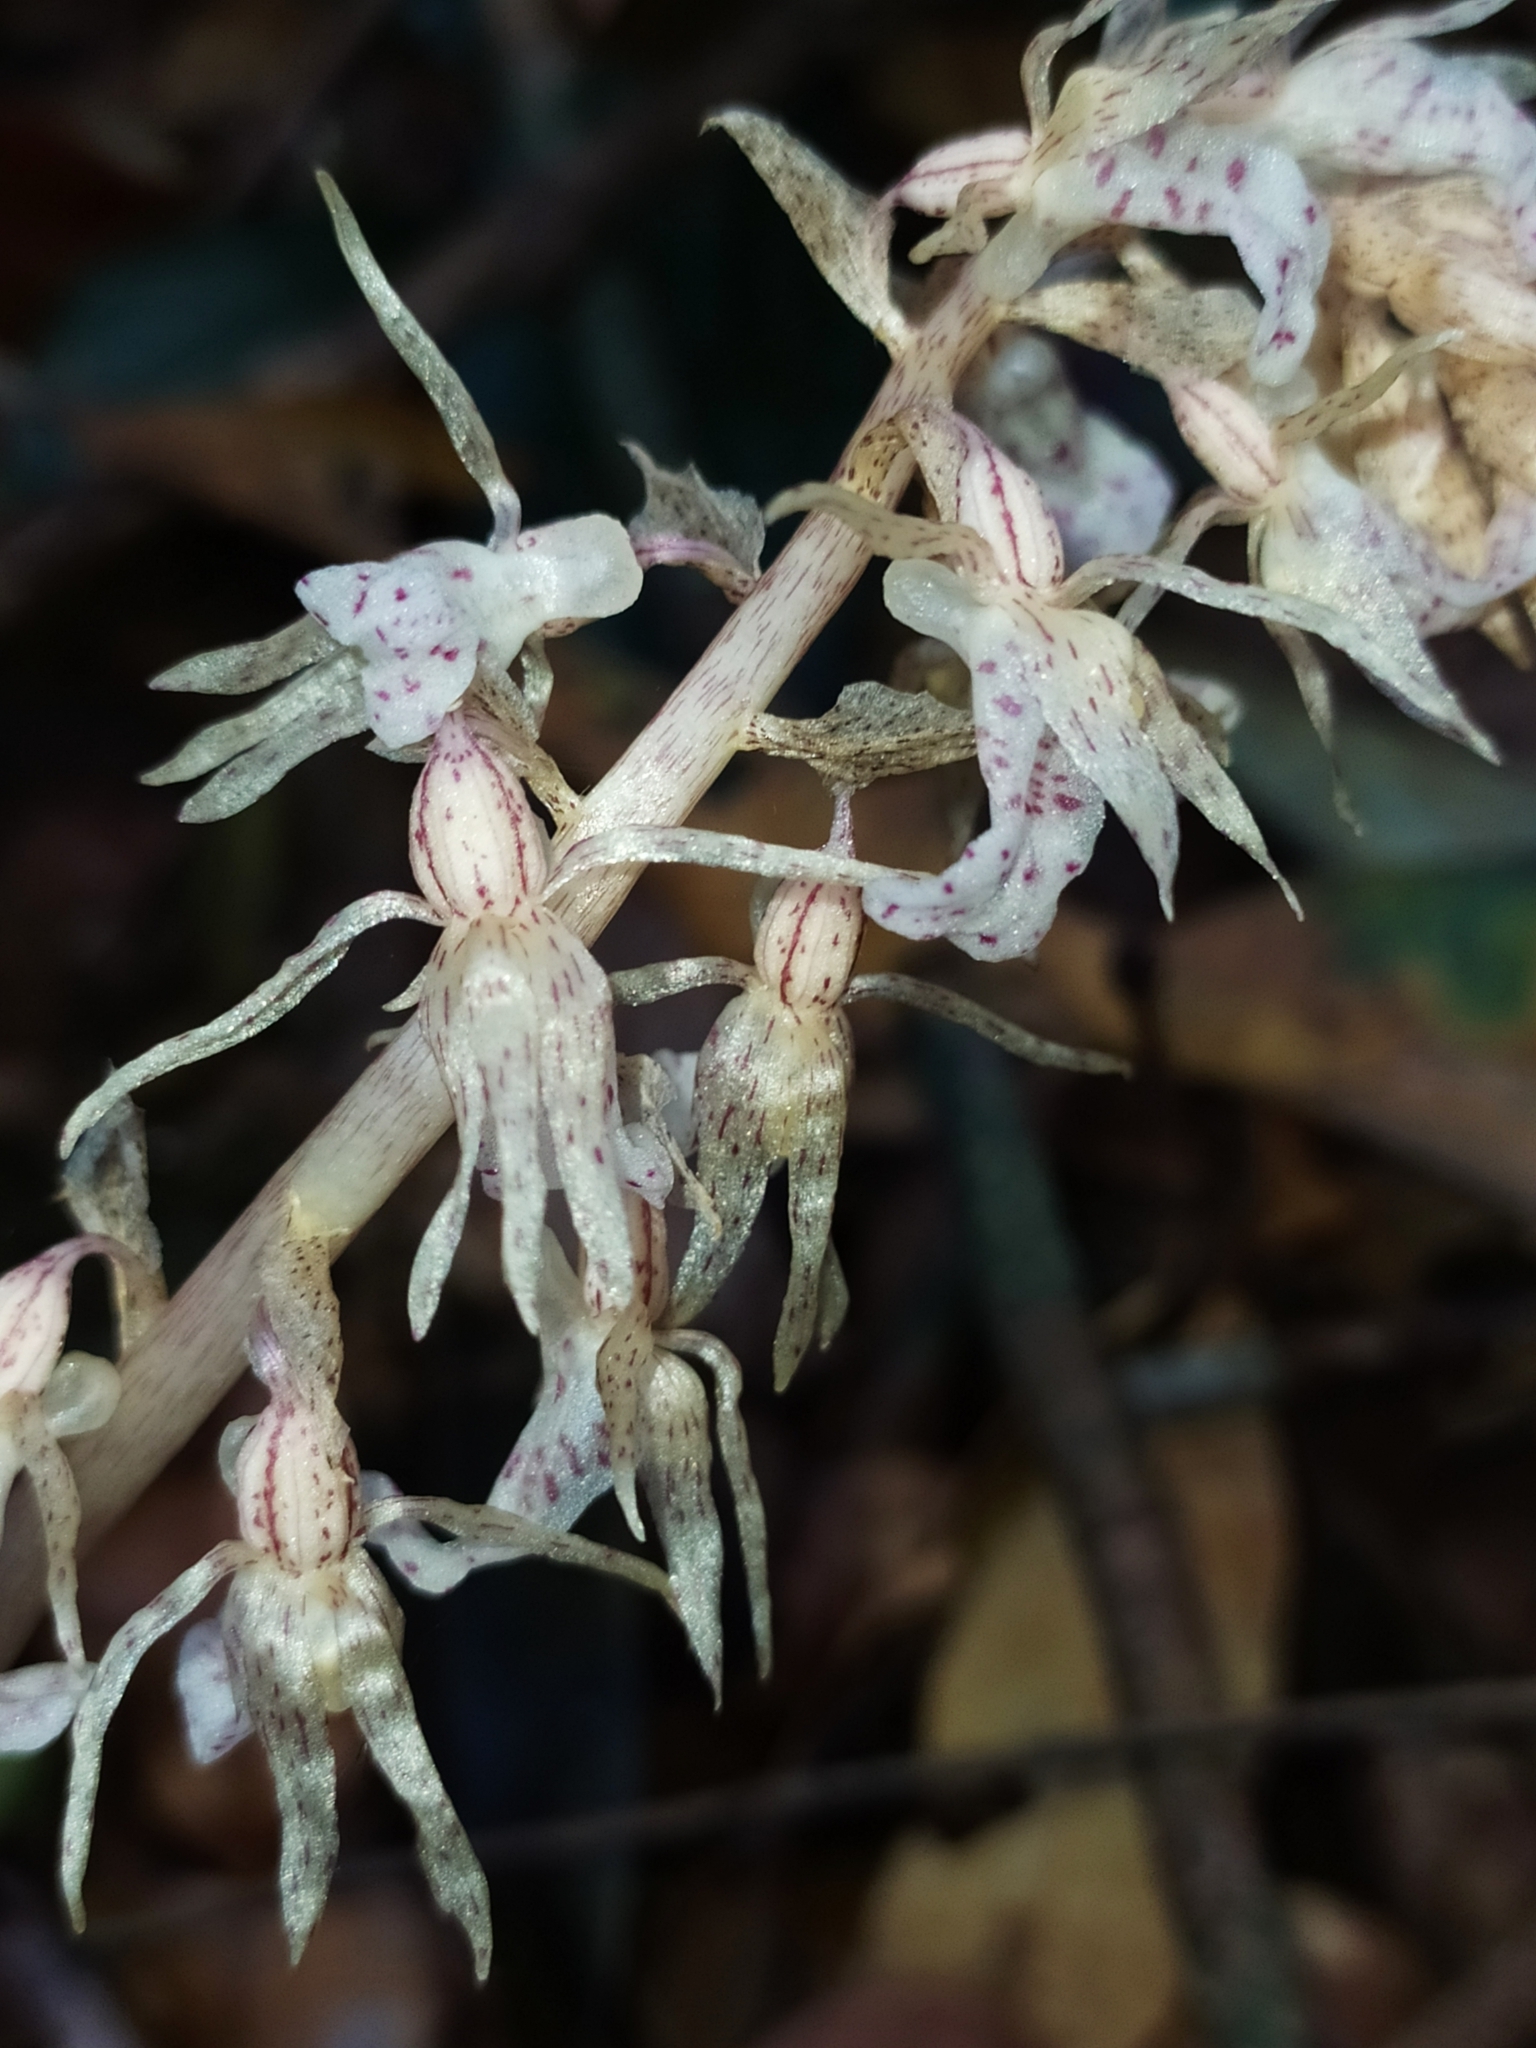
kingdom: Plantae
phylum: Tracheophyta
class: Liliopsida
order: Asparagales
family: Orchidaceae
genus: Epipogium
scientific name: Epipogium roseum
